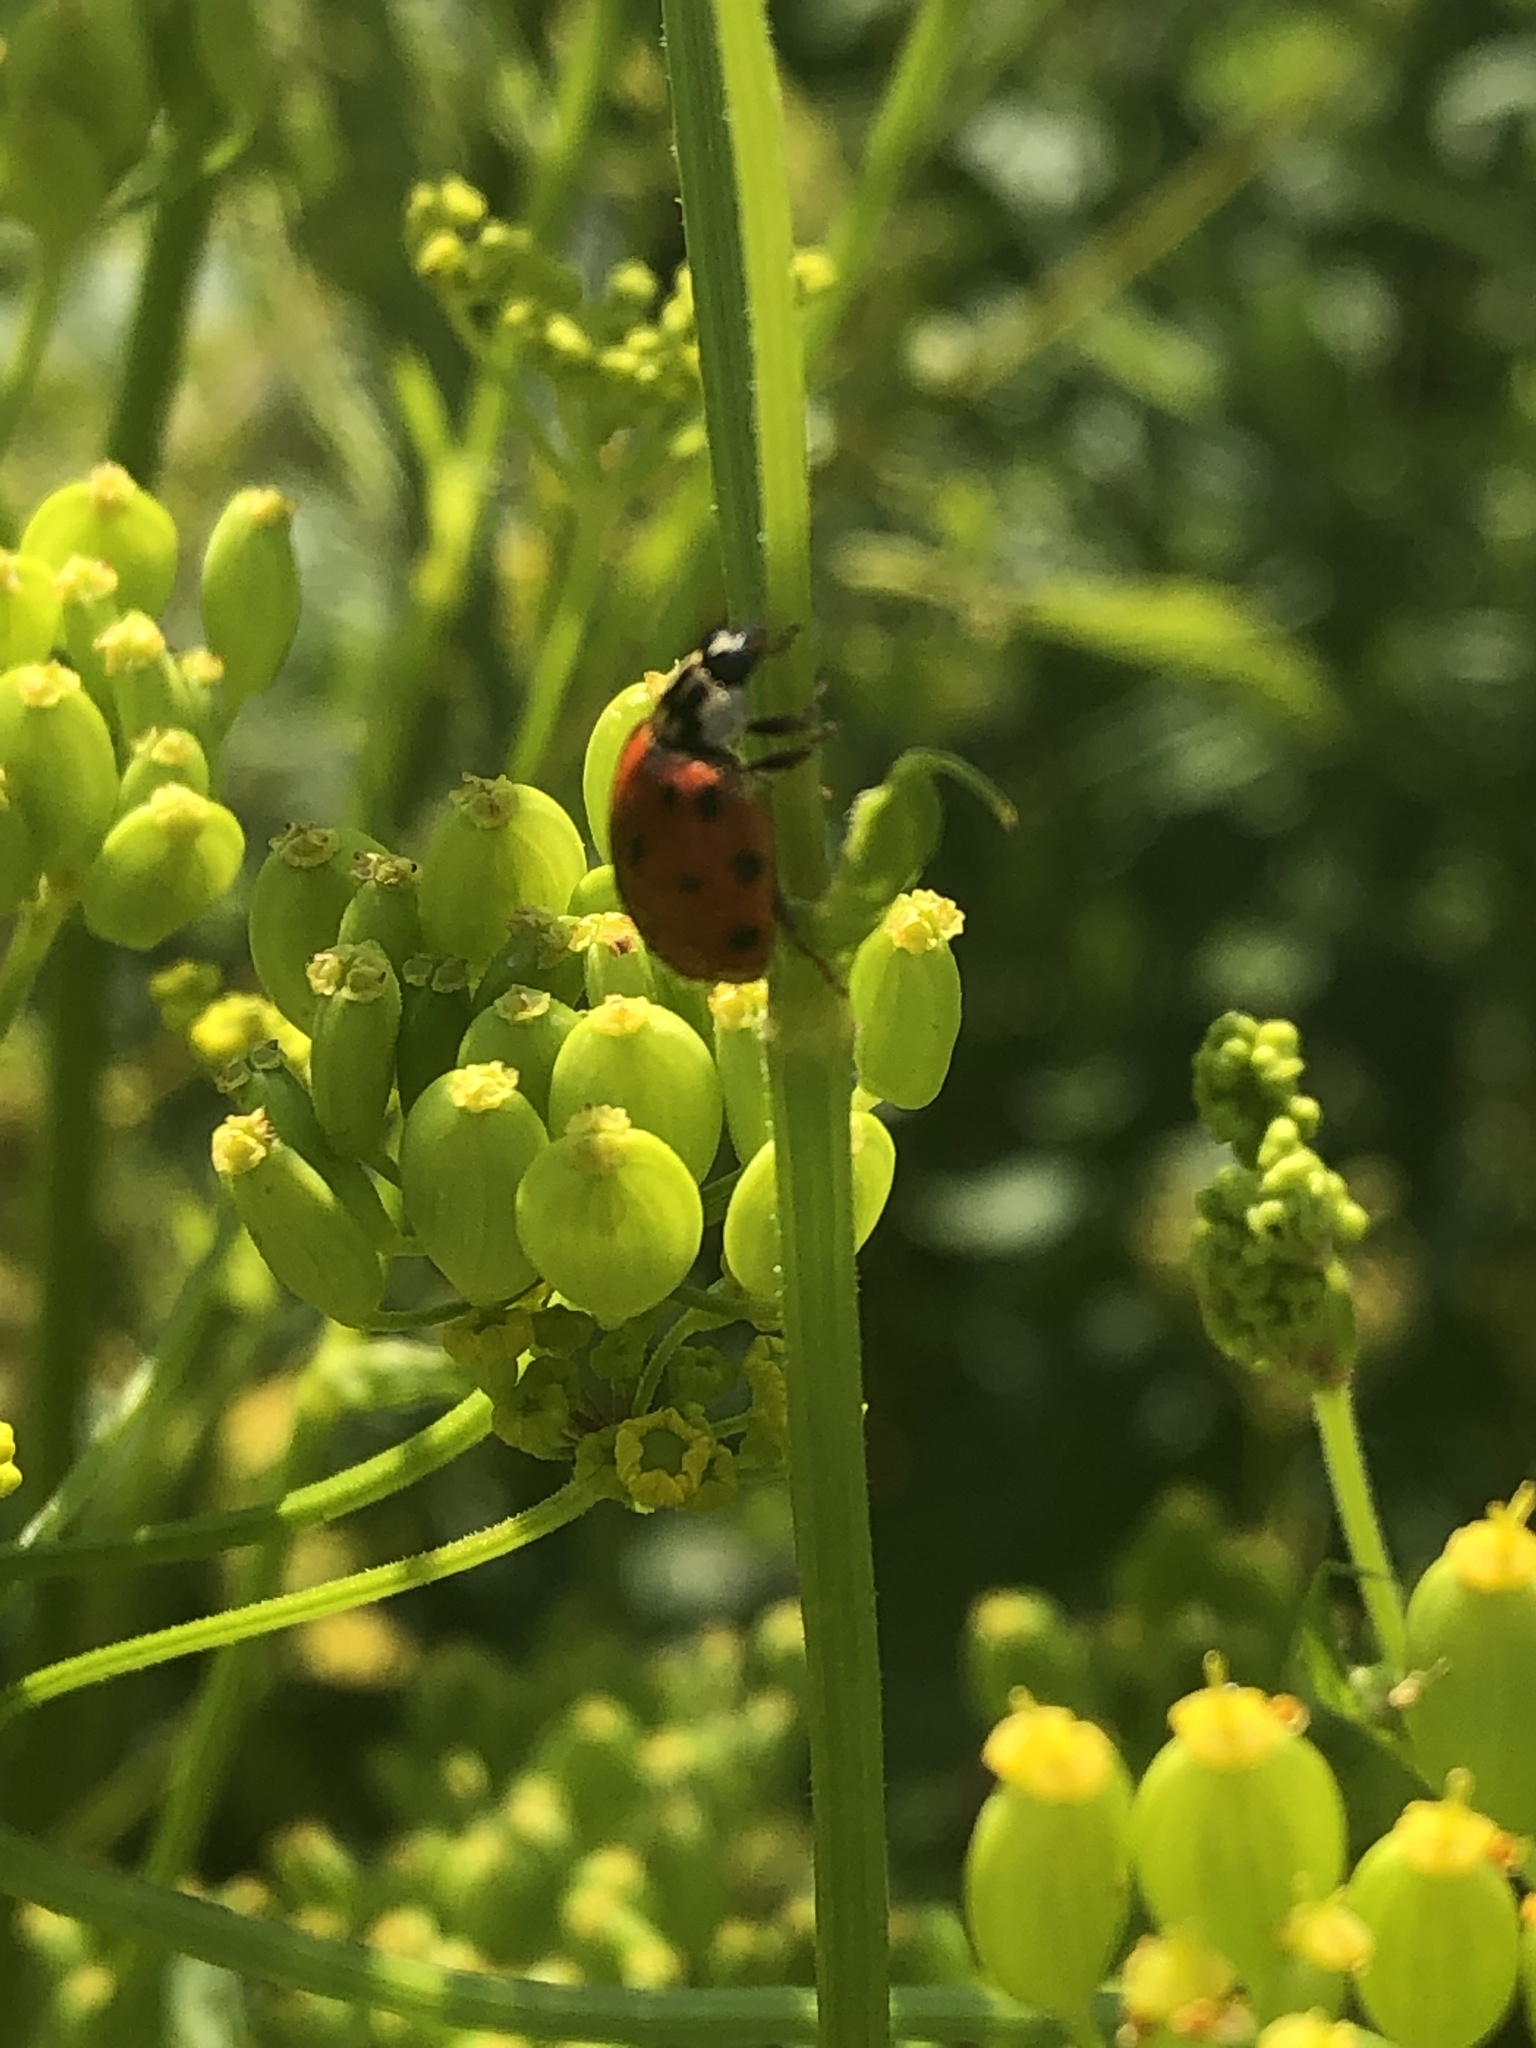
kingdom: Animalia
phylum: Arthropoda
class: Insecta
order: Coleoptera
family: Coccinellidae
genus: Harmonia
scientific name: Harmonia axyridis
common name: Harlequin ladybird
